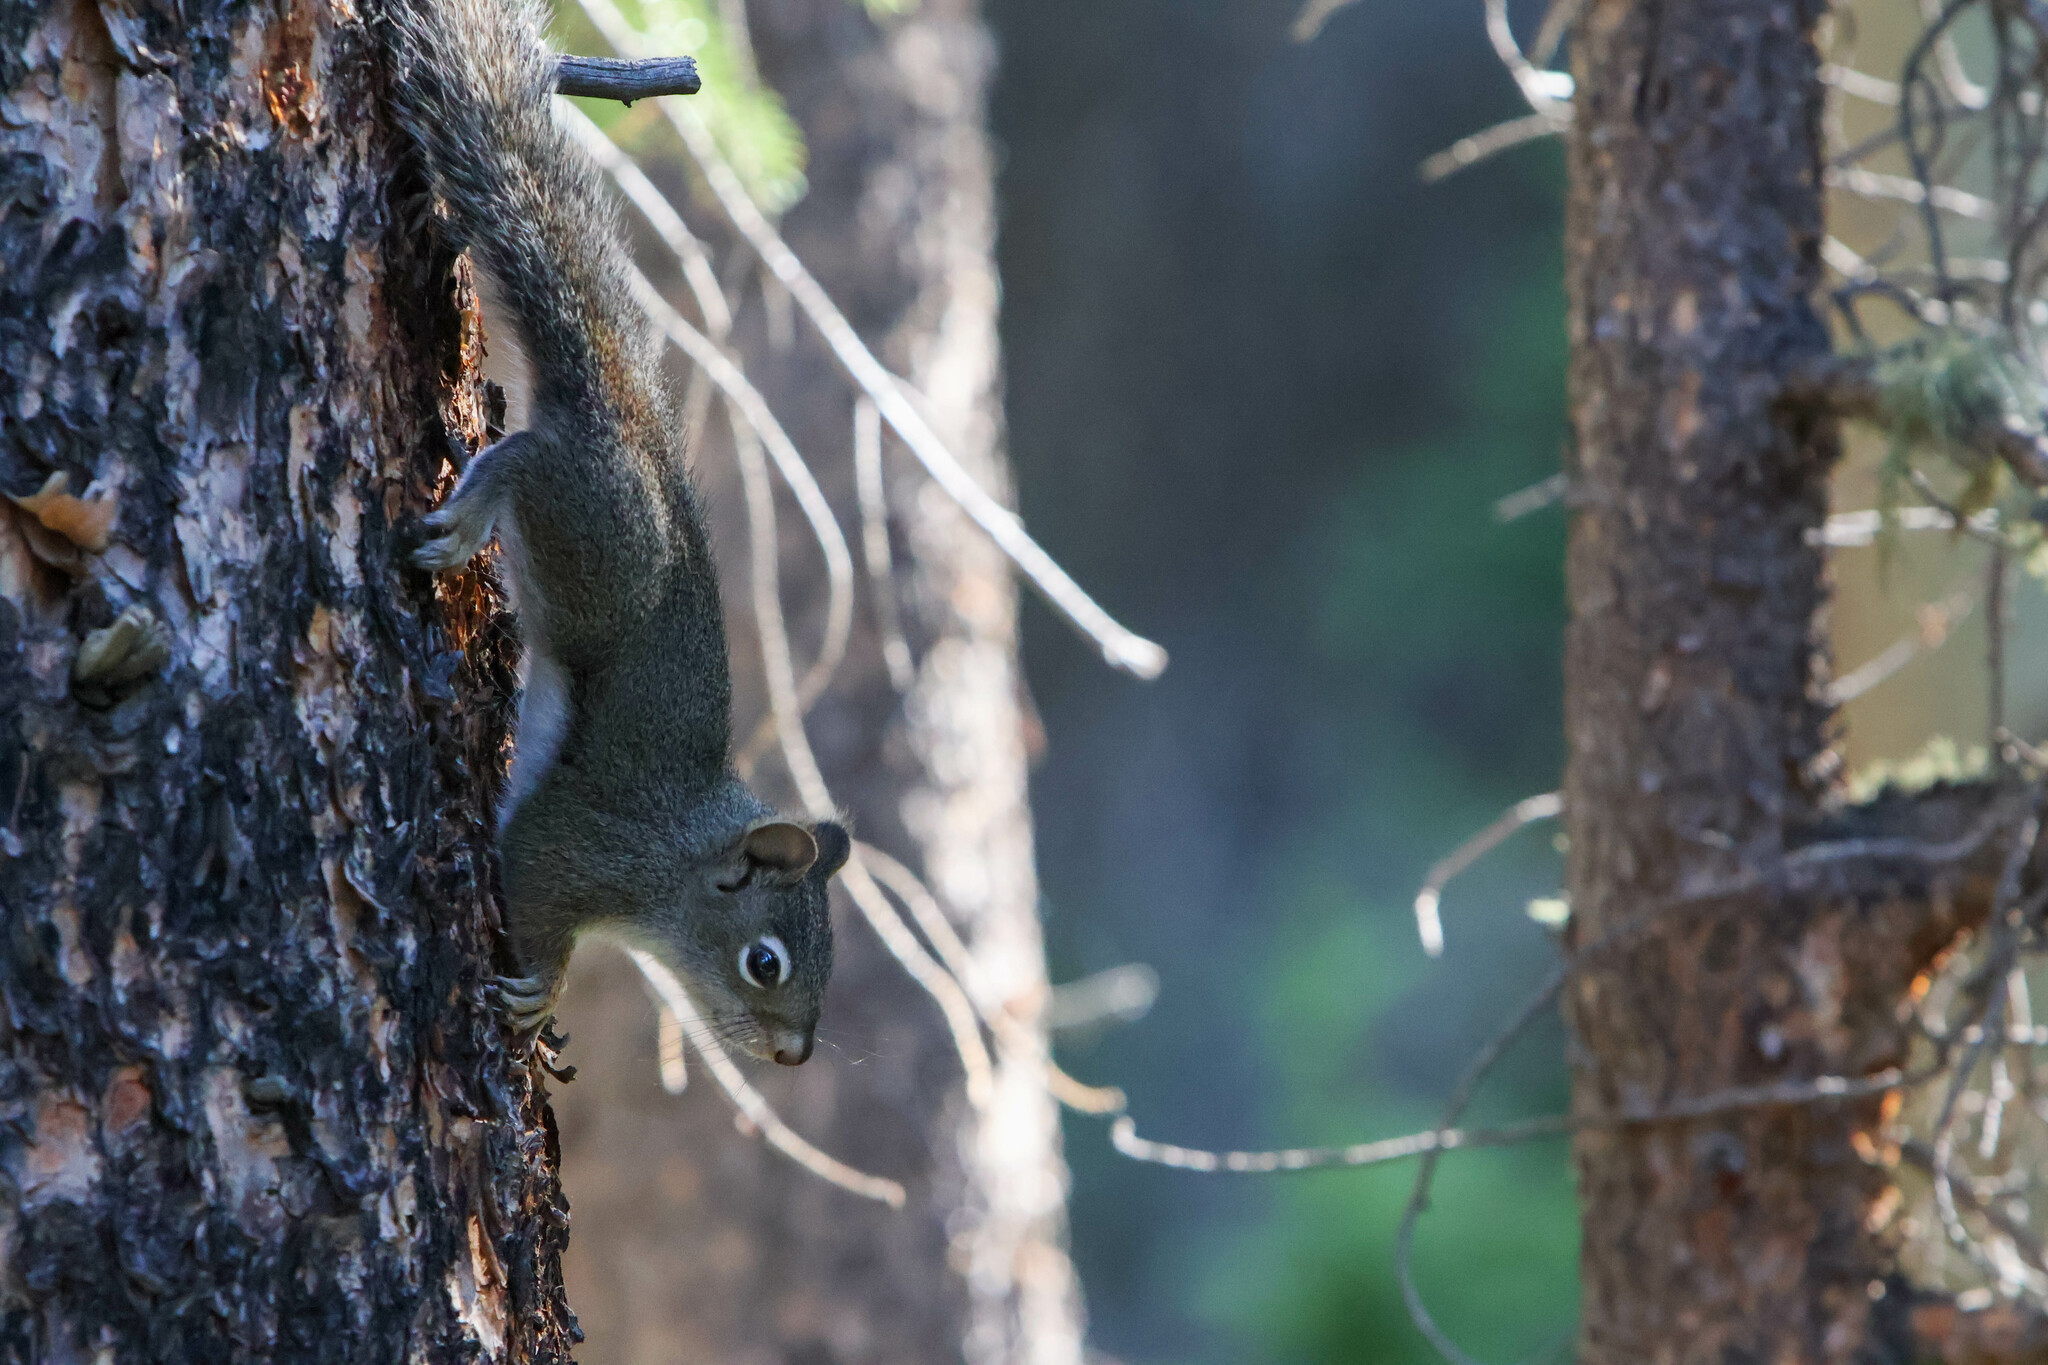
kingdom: Animalia
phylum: Chordata
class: Mammalia
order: Rodentia
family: Sciuridae
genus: Tamiasciurus
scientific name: Tamiasciurus hudsonicus
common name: Red squirrel
